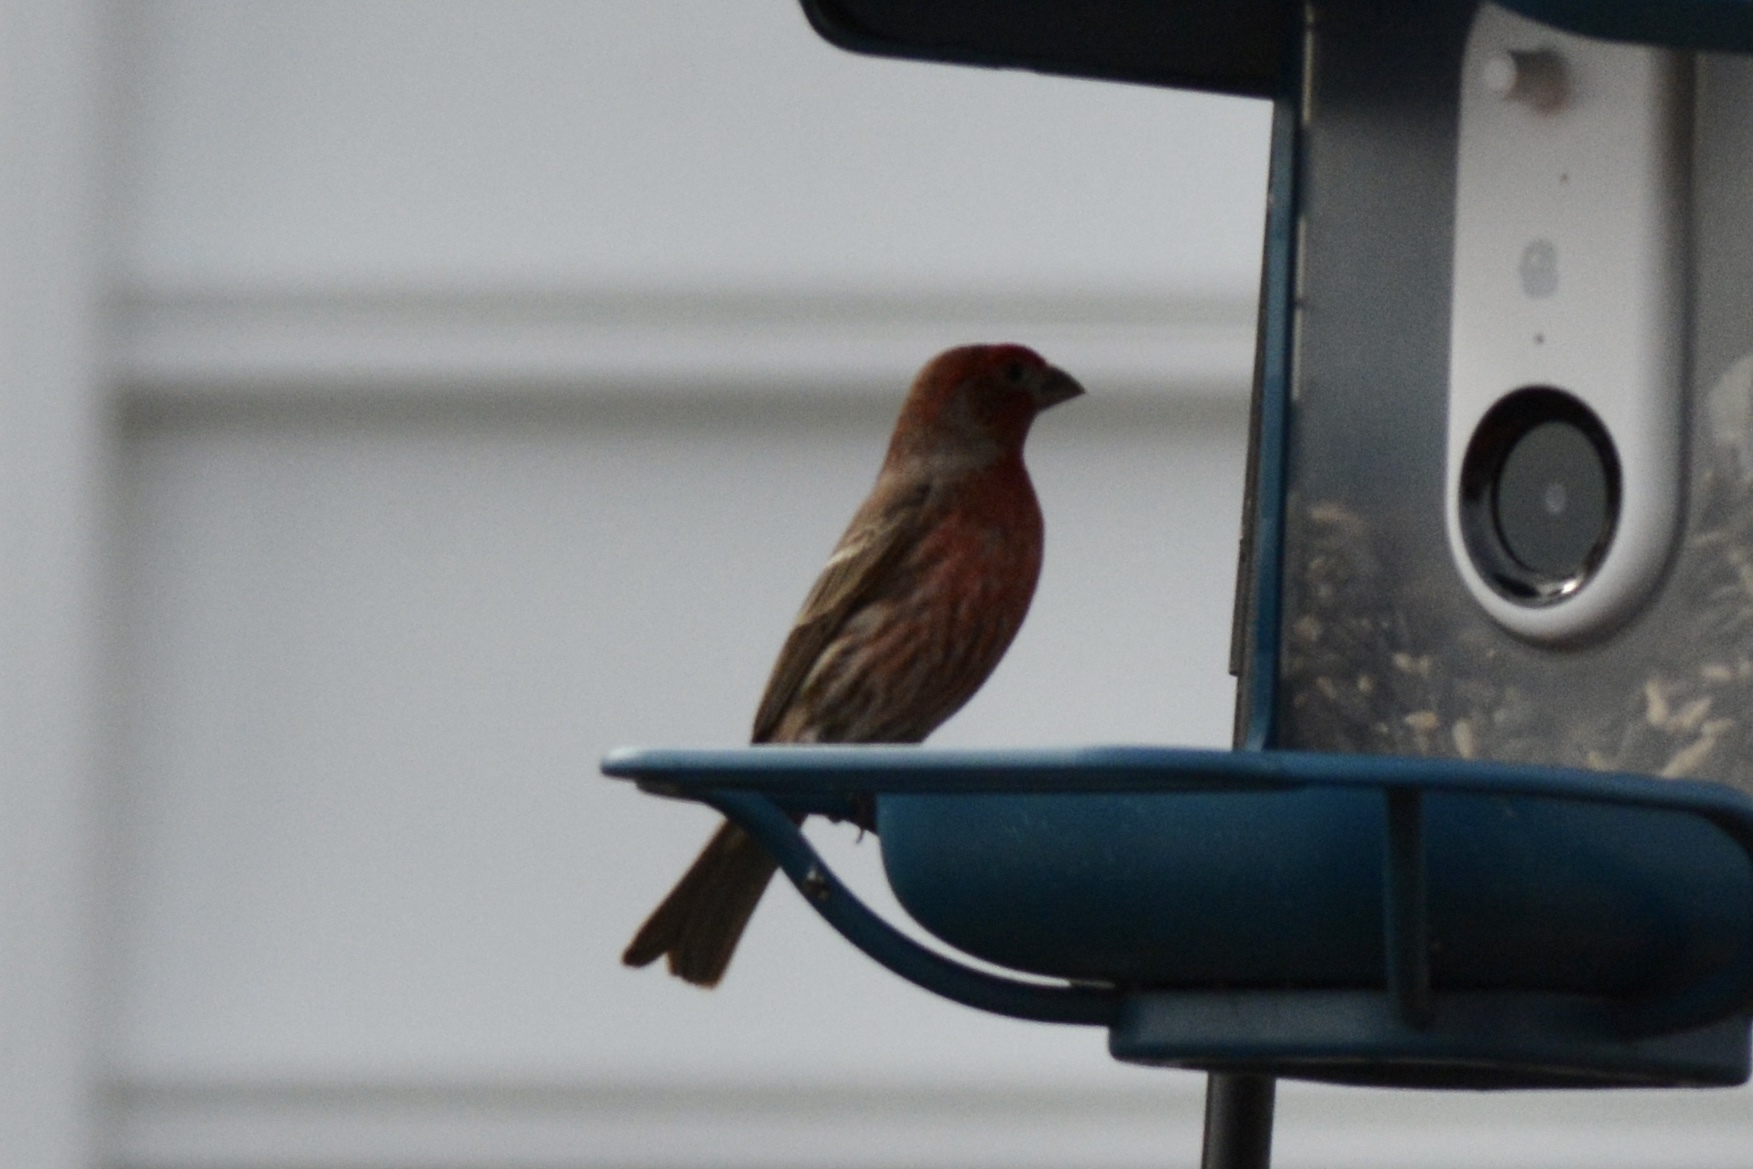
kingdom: Animalia
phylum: Chordata
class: Aves
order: Passeriformes
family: Fringillidae
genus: Haemorhous
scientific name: Haemorhous mexicanus
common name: House finch
